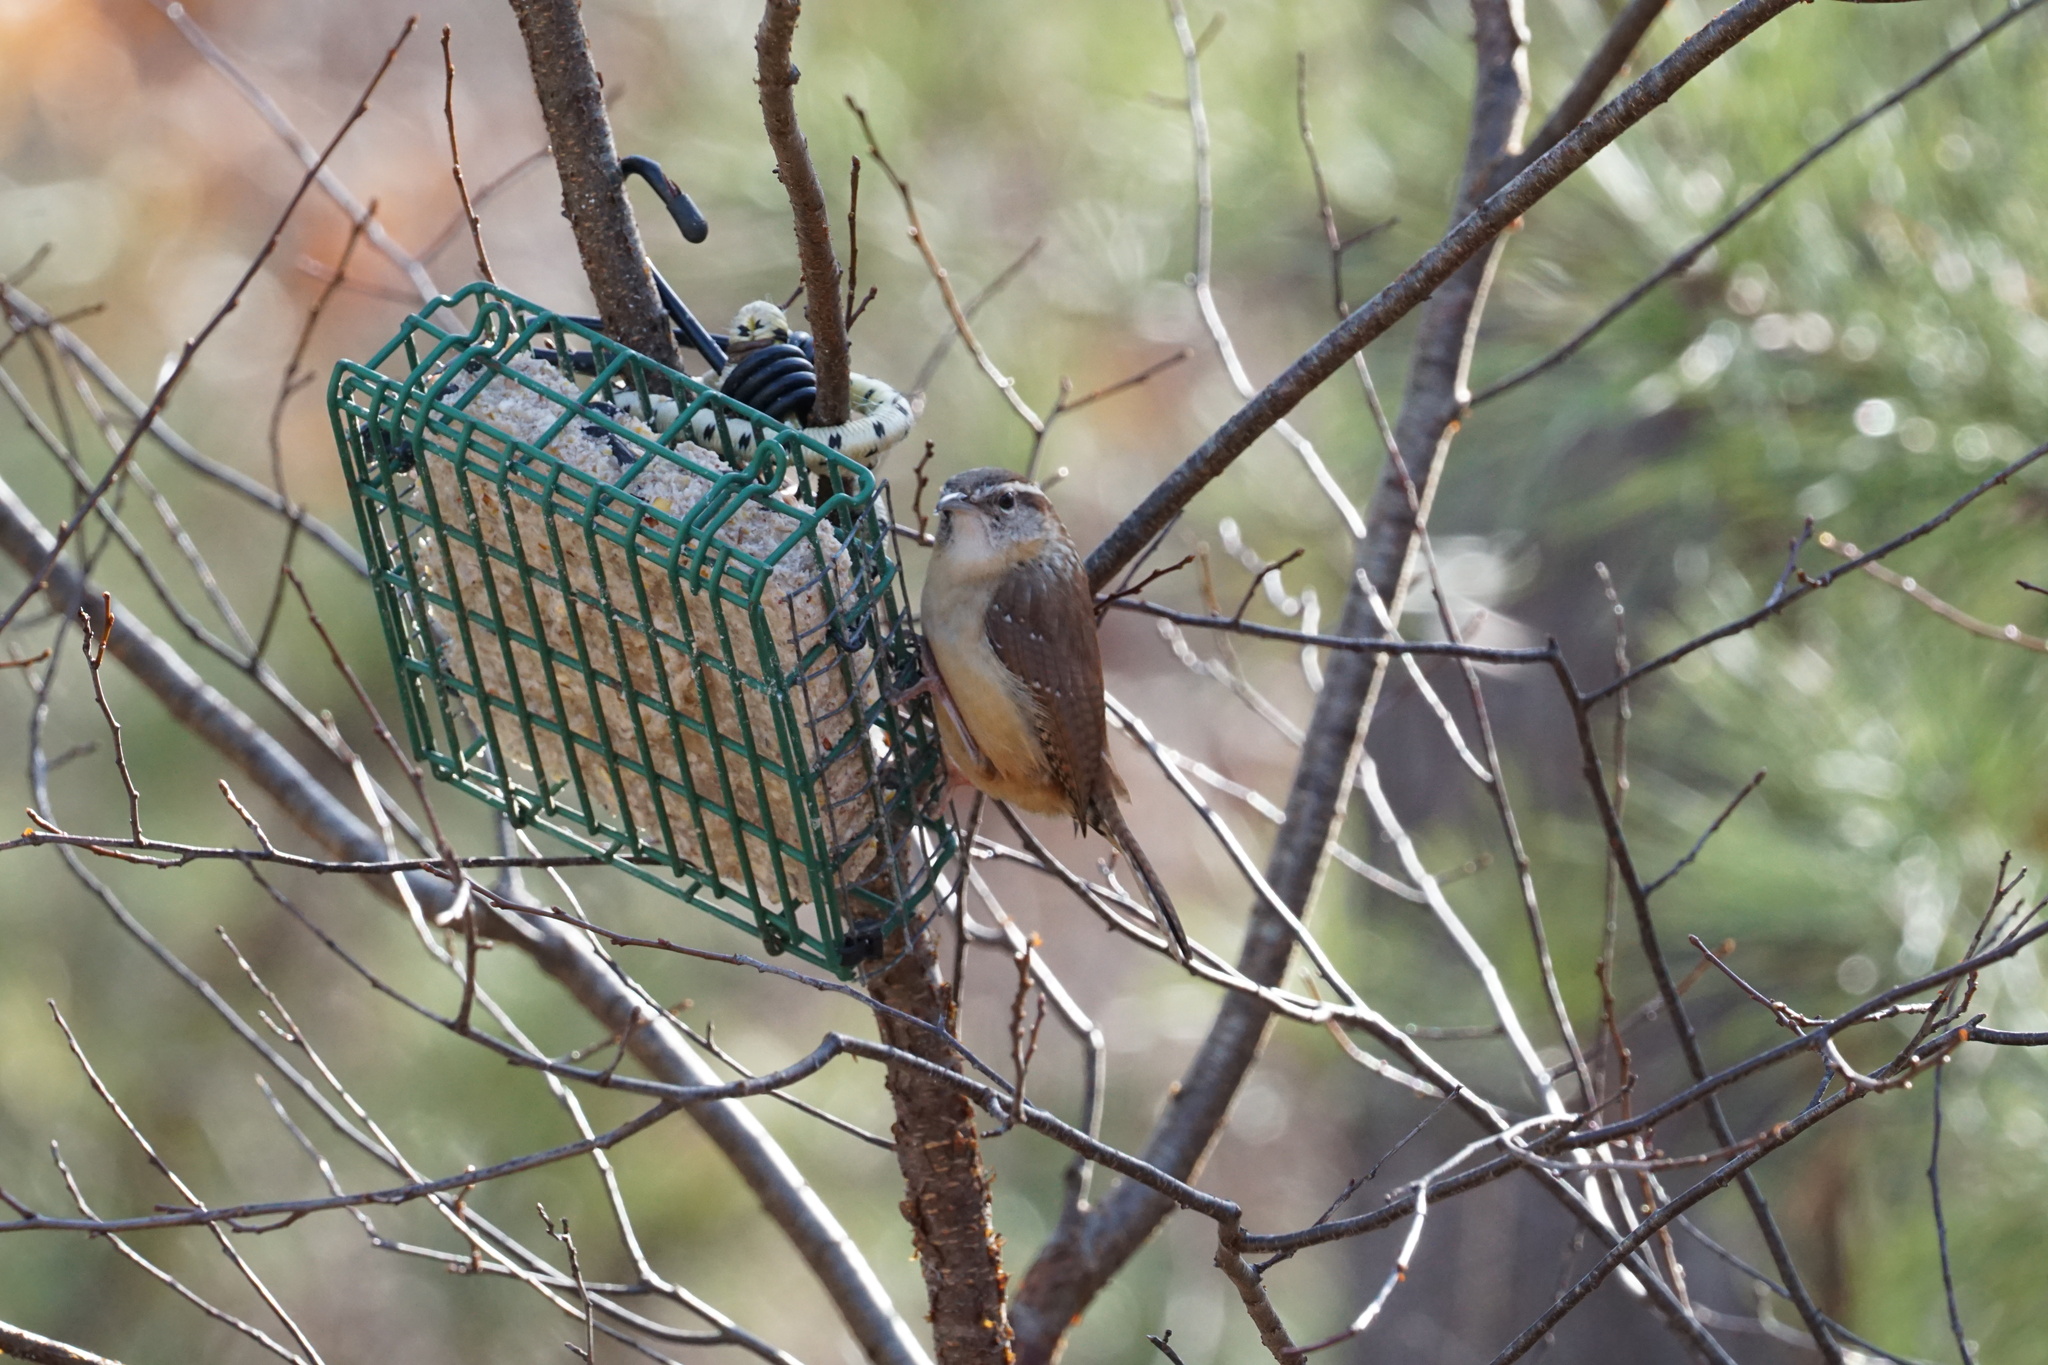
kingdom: Animalia
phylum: Chordata
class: Aves
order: Passeriformes
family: Troglodytidae
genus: Thryothorus
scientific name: Thryothorus ludovicianus
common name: Carolina wren
